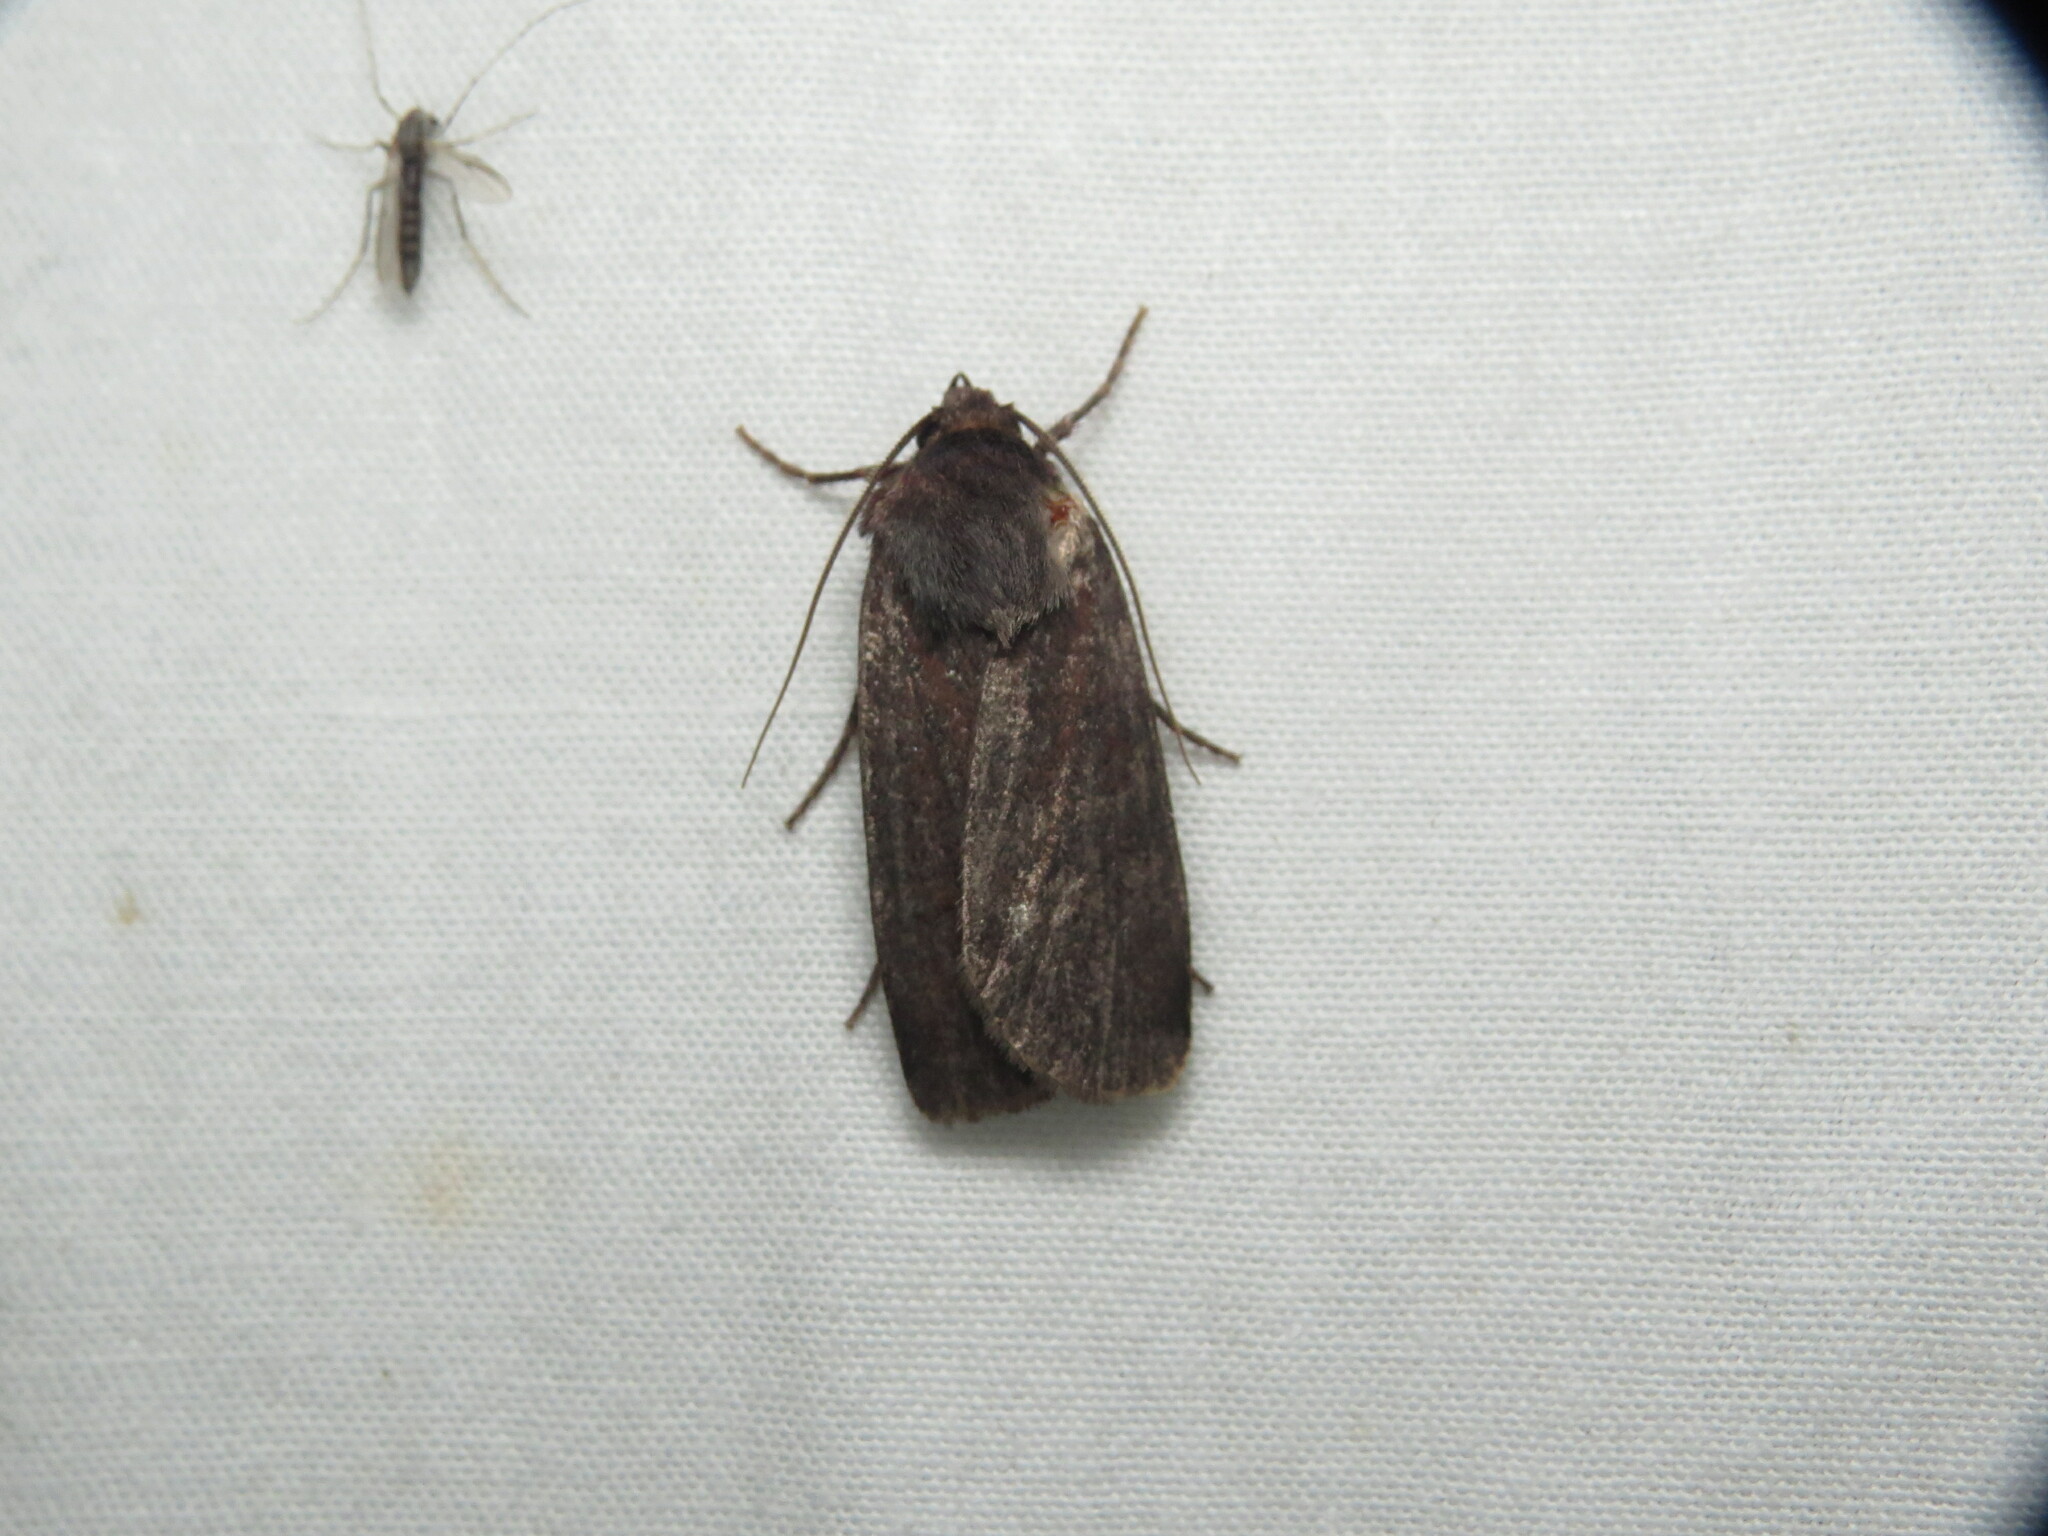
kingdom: Animalia
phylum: Arthropoda
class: Insecta
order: Lepidoptera
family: Noctuidae
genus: Euxoa
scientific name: Euxoa velleripennis
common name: Fleece-winged dart
